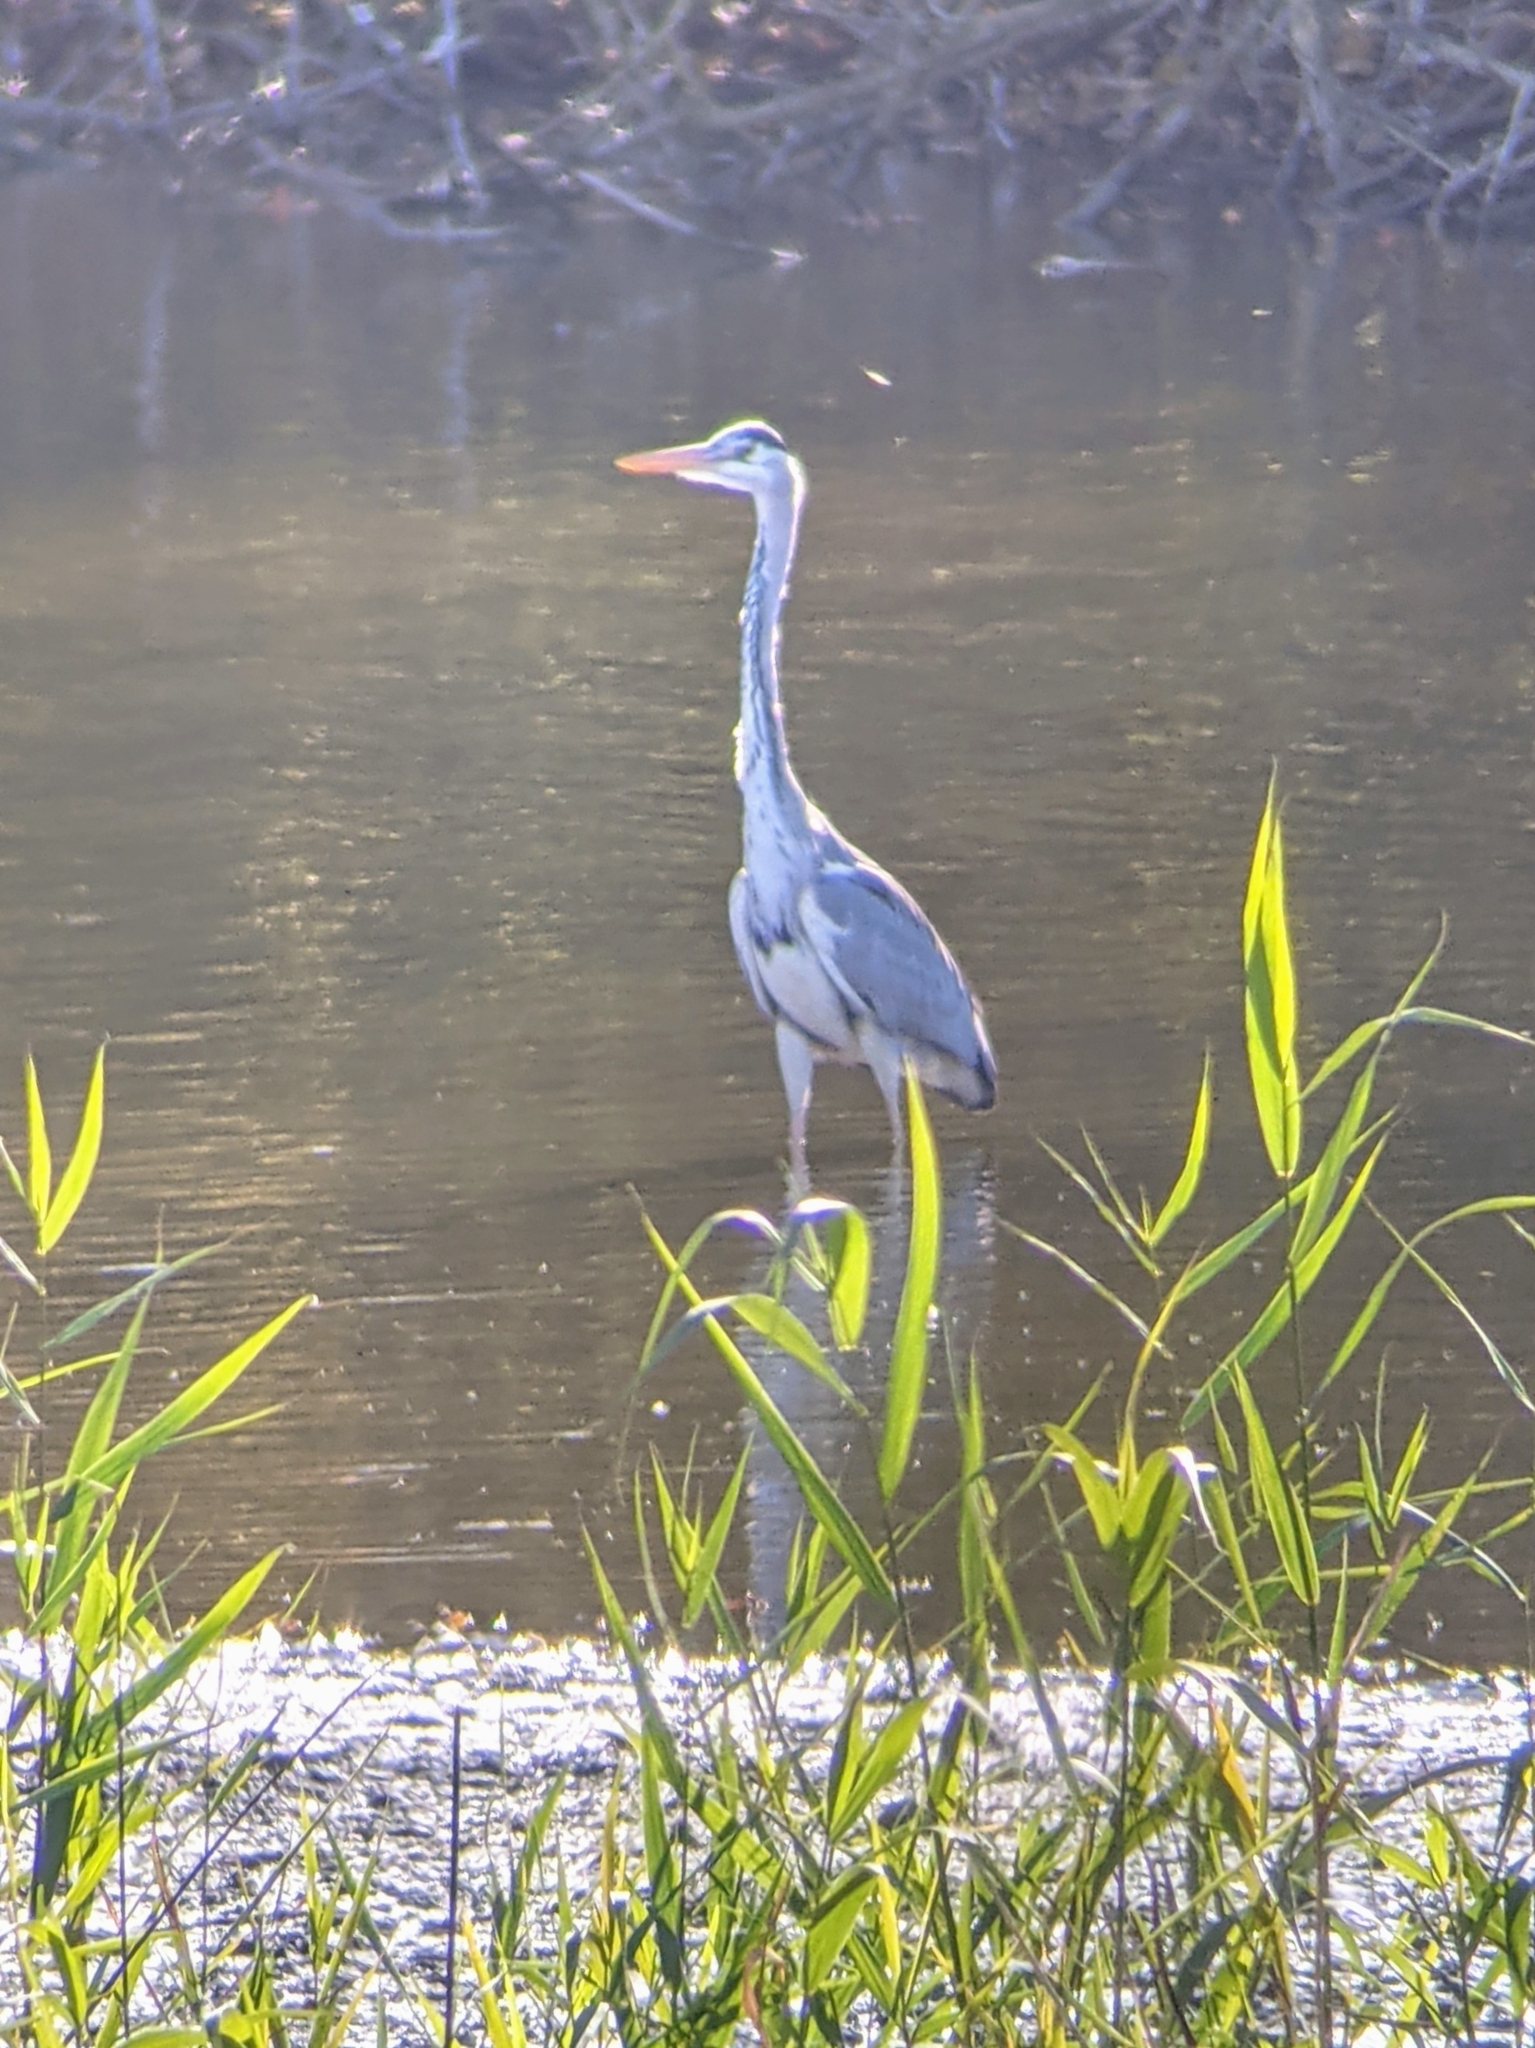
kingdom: Animalia
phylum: Chordata
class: Aves
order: Pelecaniformes
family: Ardeidae
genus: Ardea
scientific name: Ardea cinerea
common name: Grey heron
